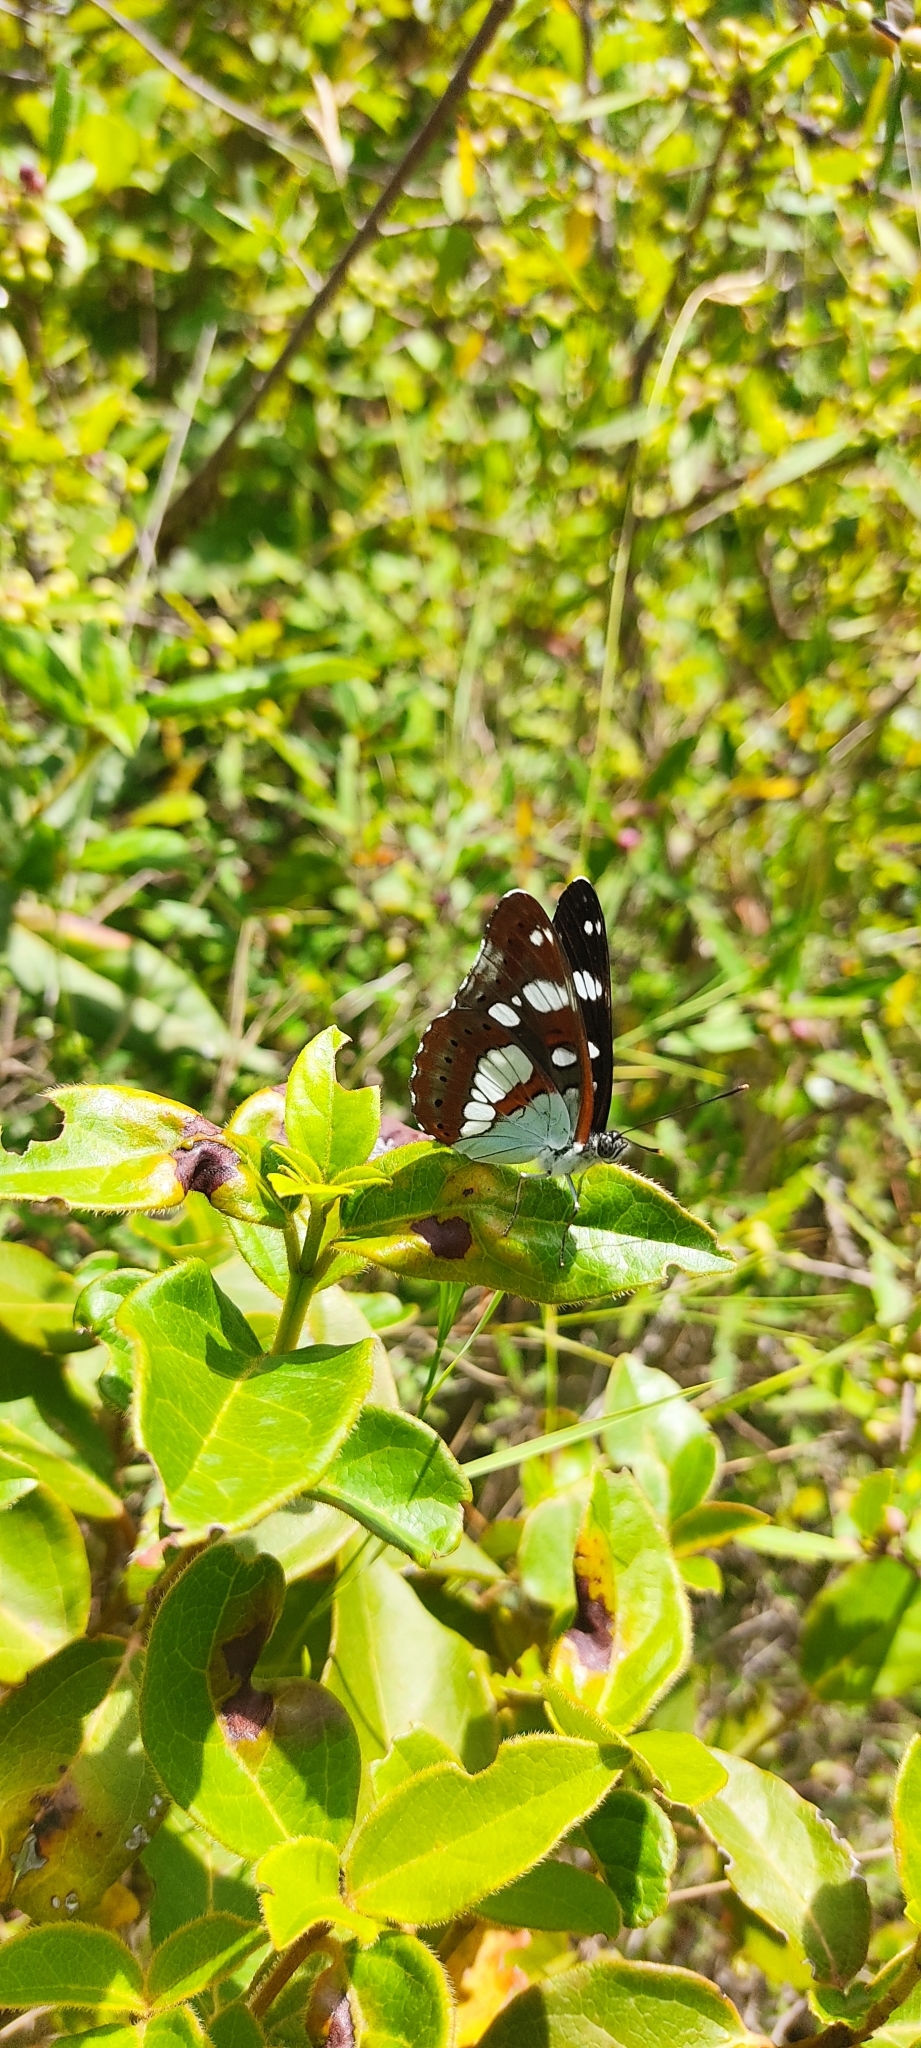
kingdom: Animalia
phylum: Arthropoda
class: Insecta
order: Lepidoptera
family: Nymphalidae
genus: Limenitis
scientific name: Limenitis reducta
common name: Southern white admiral
